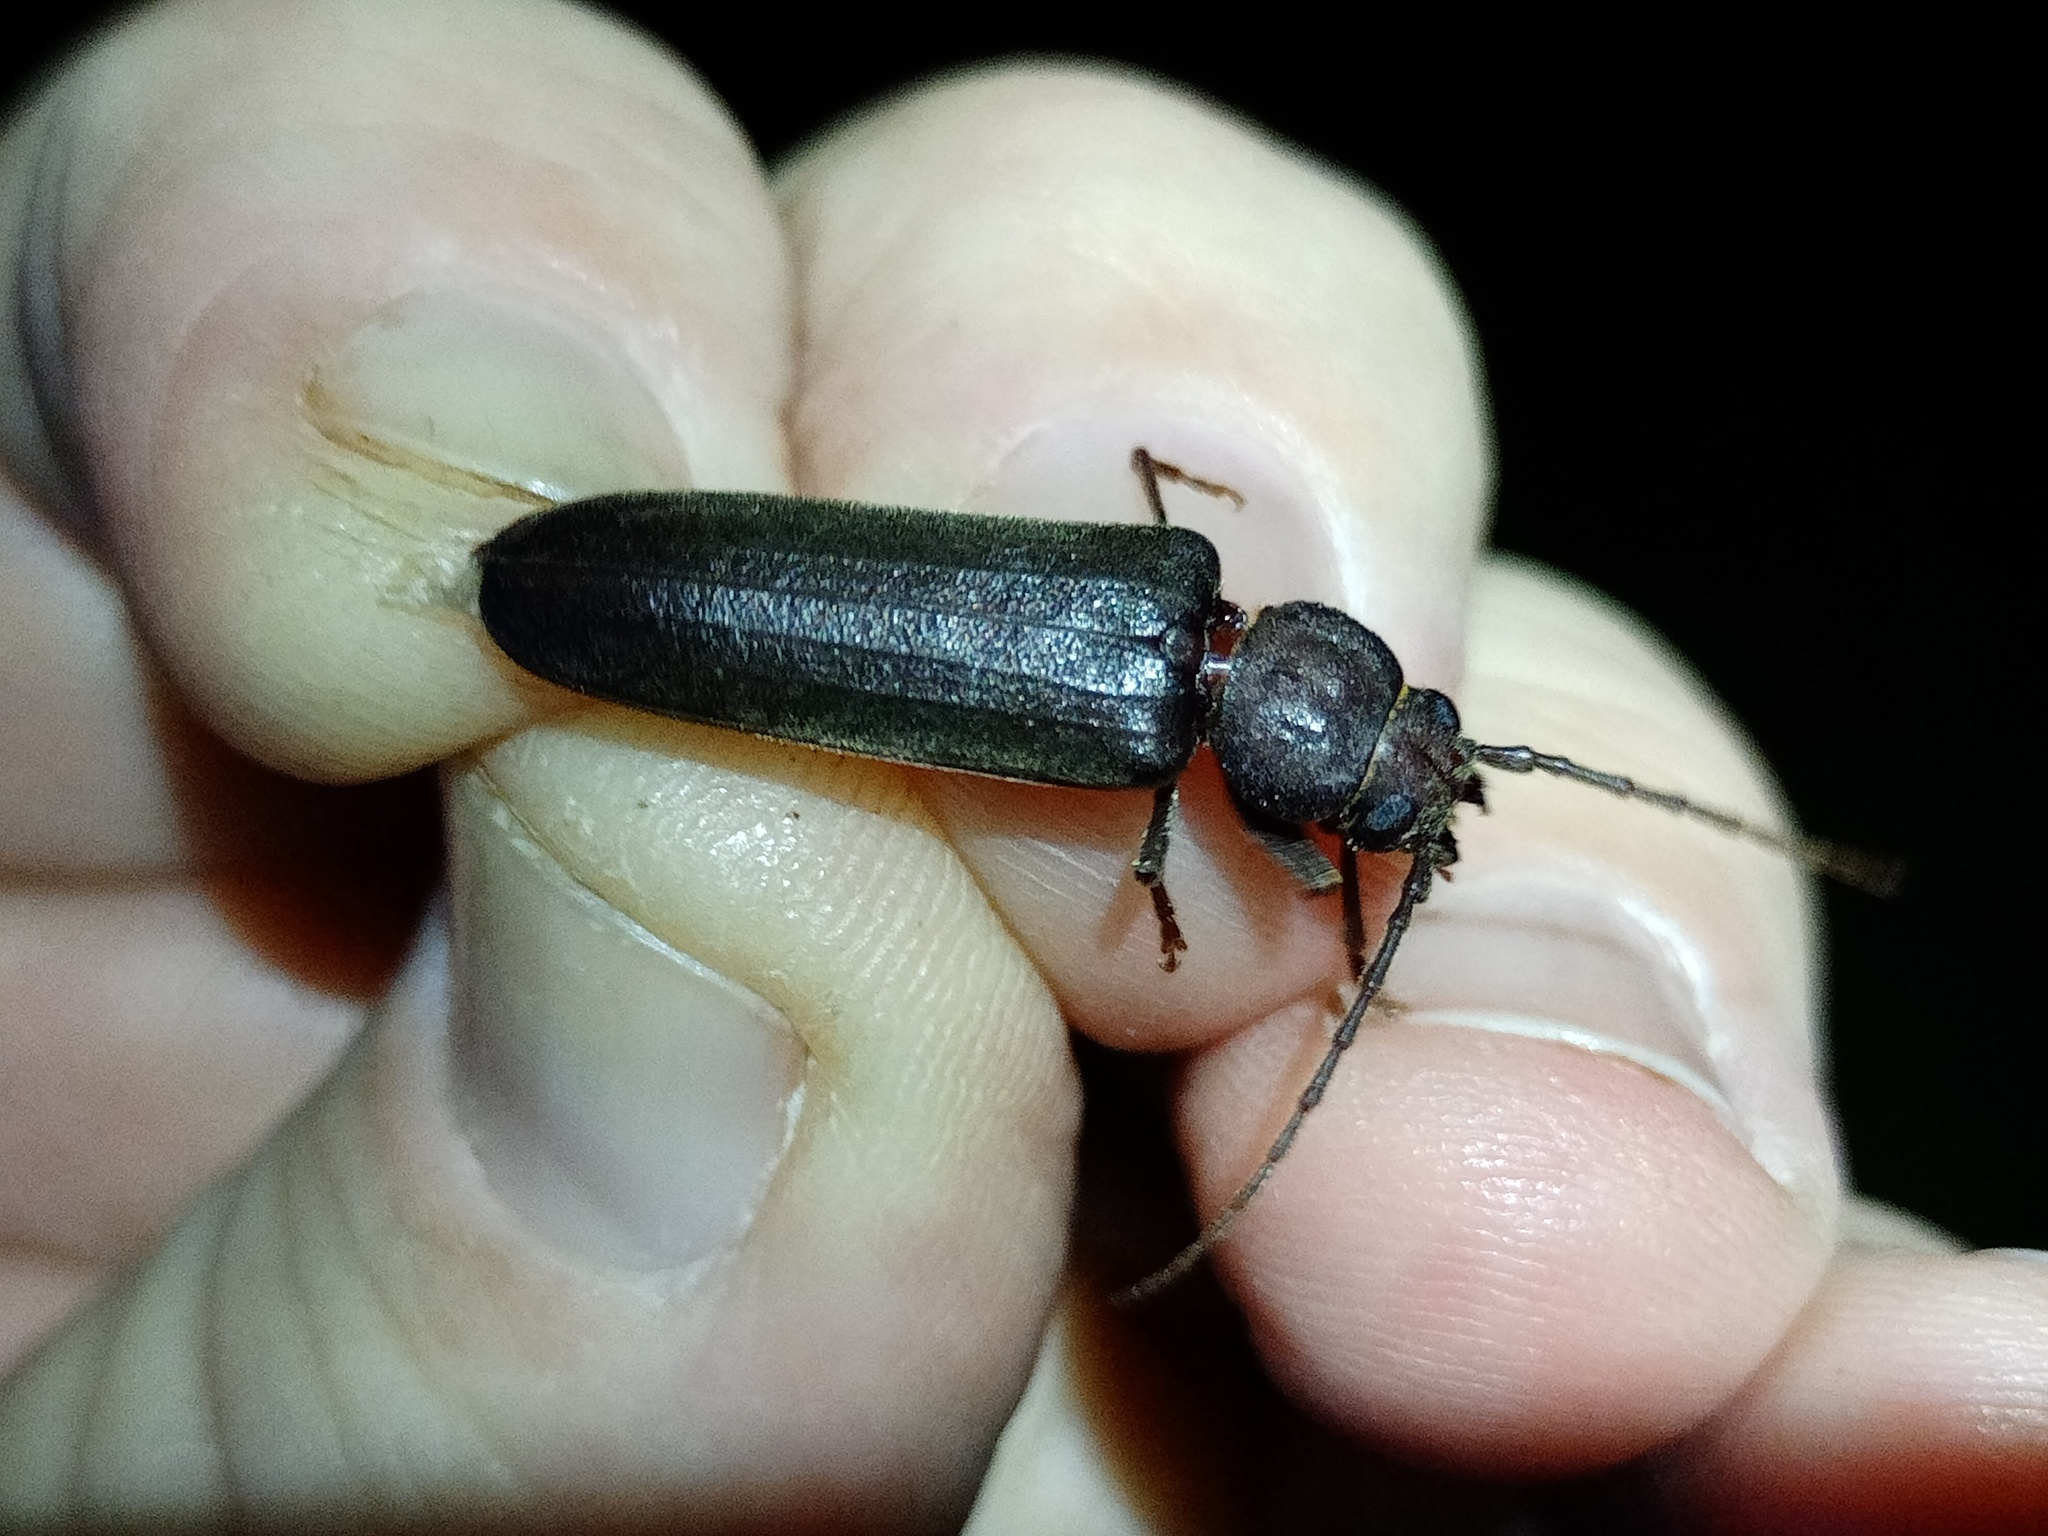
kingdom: Animalia
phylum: Arthropoda
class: Insecta
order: Coleoptera
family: Cerambycidae
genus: Arhopalus
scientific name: Arhopalus rusticus
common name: Rust pine borer
